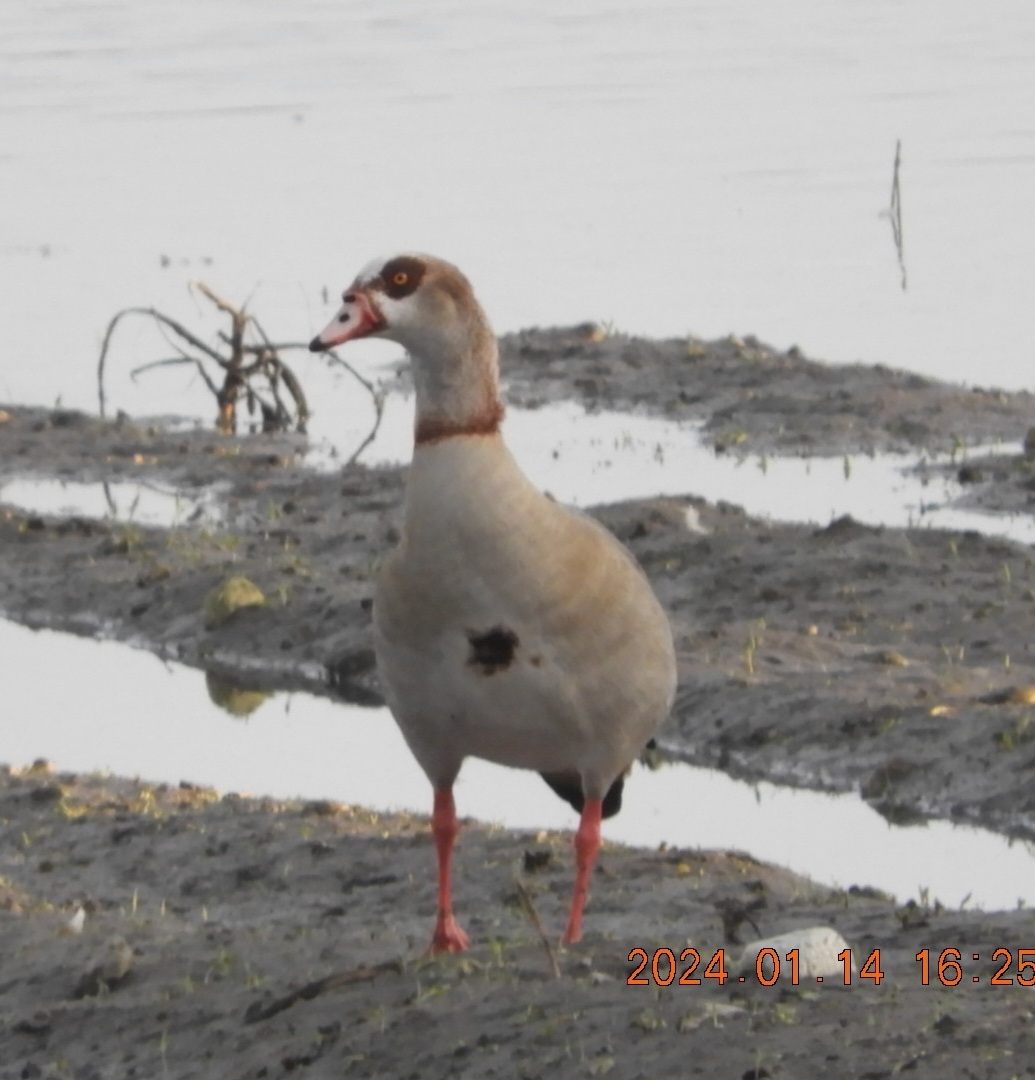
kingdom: Animalia
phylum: Chordata
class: Aves
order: Anseriformes
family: Anatidae
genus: Alopochen
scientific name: Alopochen aegyptiaca
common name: Egyptian goose
